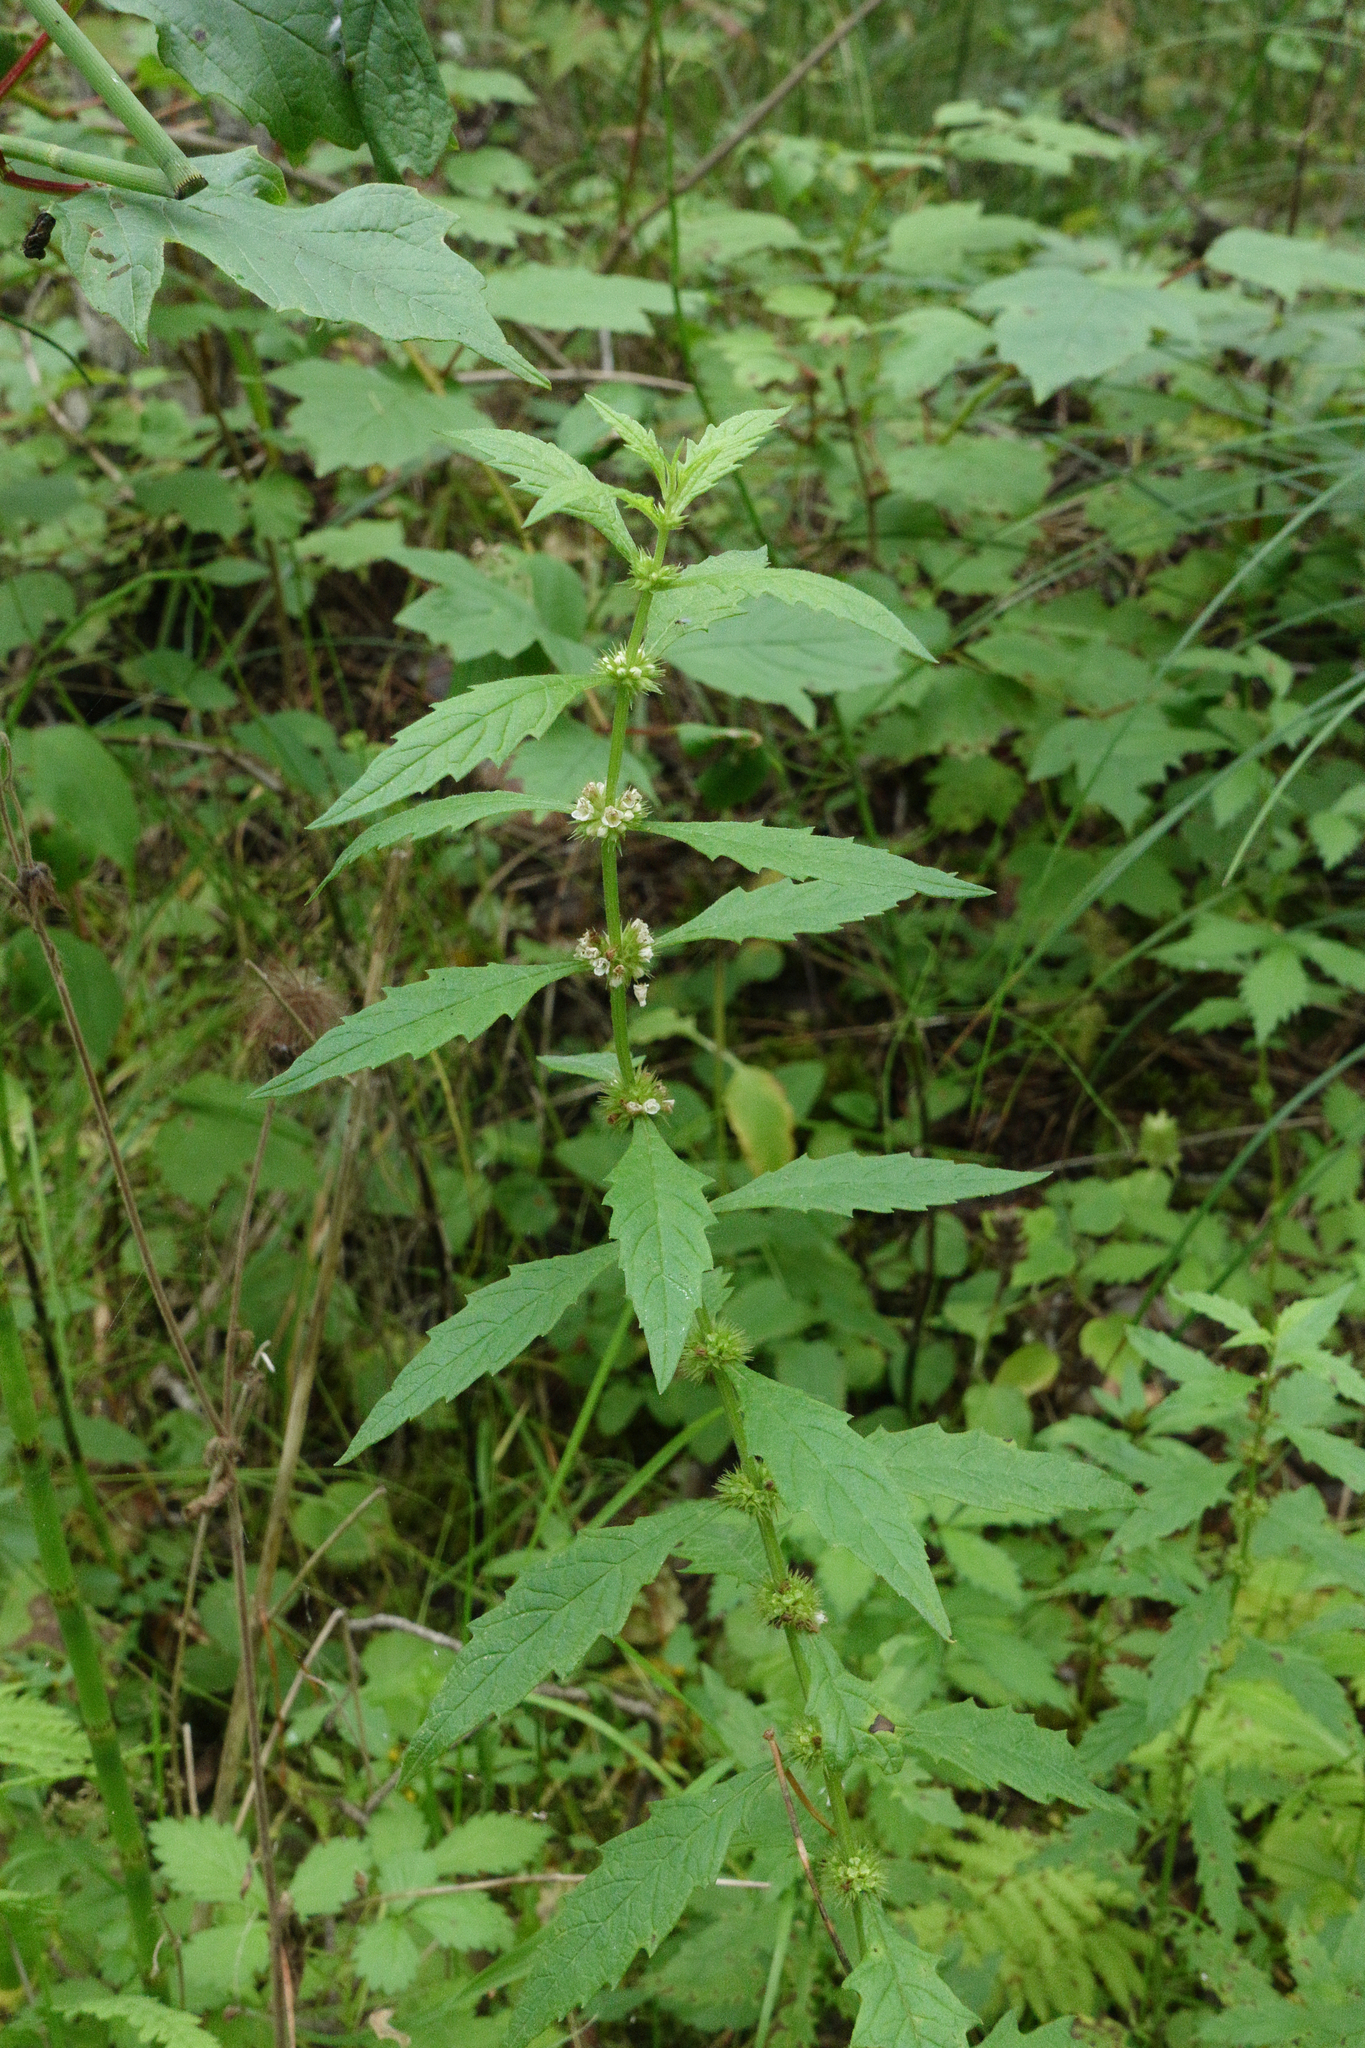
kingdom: Plantae
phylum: Tracheophyta
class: Magnoliopsida
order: Lamiales
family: Lamiaceae
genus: Lycopus
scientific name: Lycopus europaeus
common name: European bugleweed
